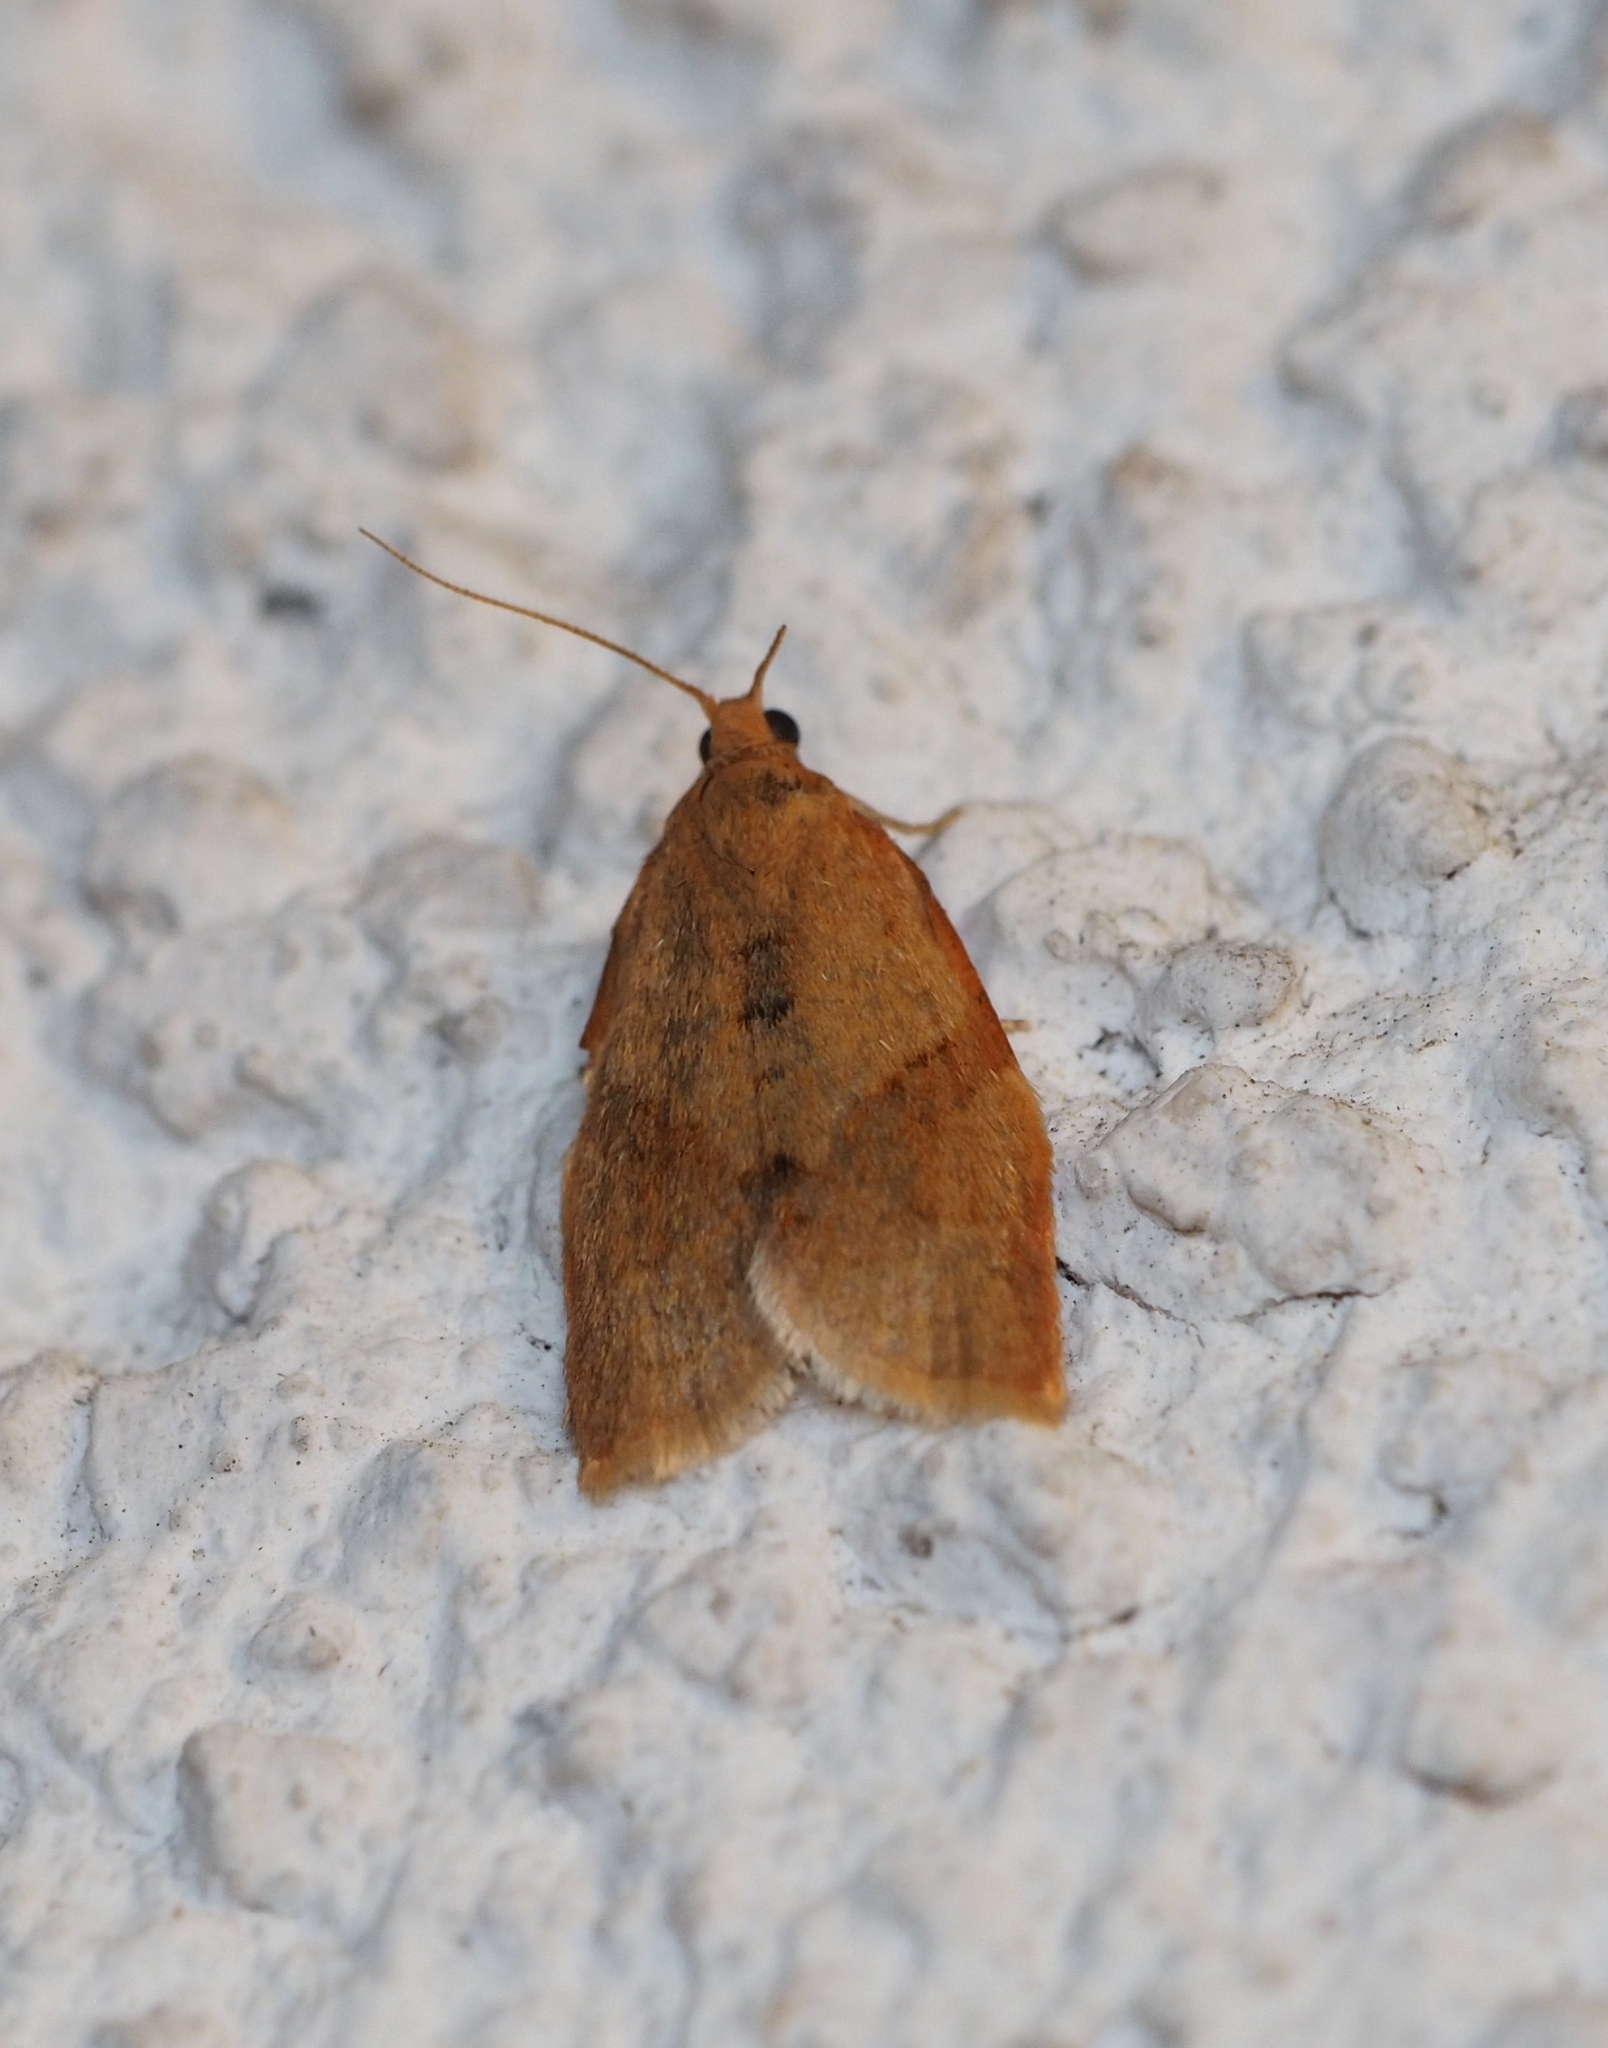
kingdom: Animalia
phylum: Arthropoda
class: Insecta
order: Lepidoptera
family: Tortricidae
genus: Clepsis
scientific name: Clepsis consimilana
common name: Privet tortrix
